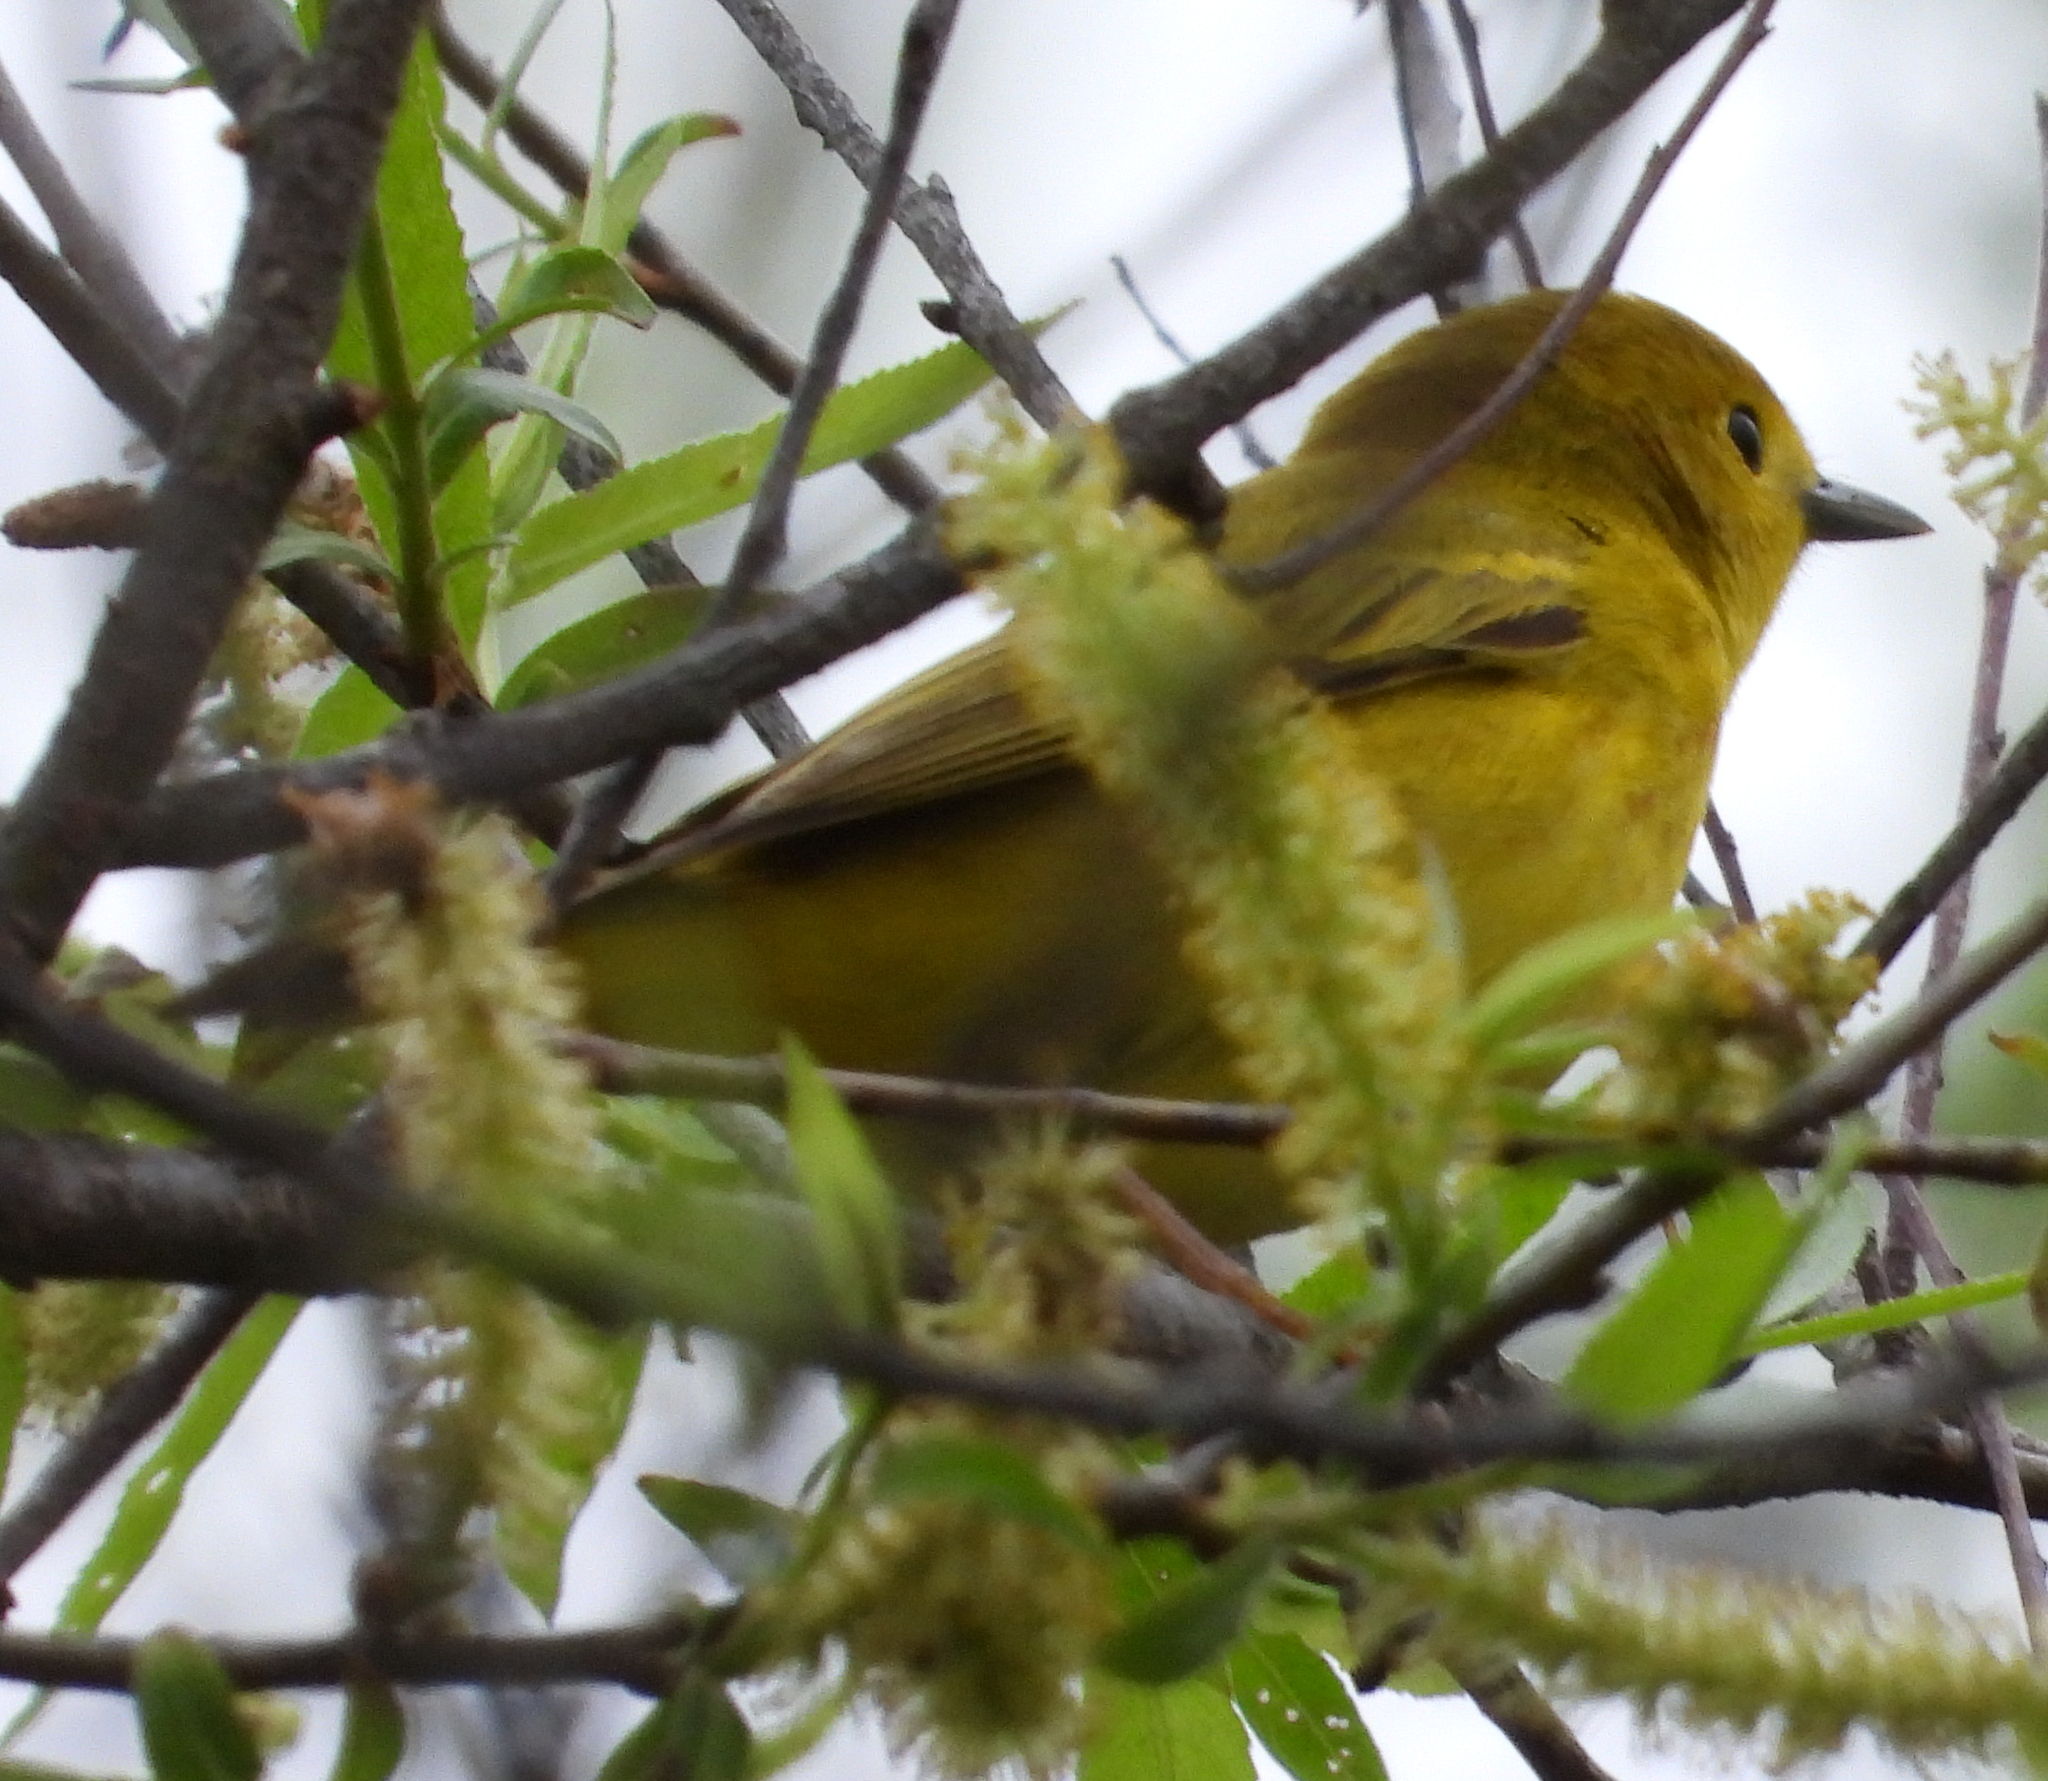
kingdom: Animalia
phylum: Chordata
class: Aves
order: Passeriformes
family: Parulidae
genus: Setophaga
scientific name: Setophaga petechia
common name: Yellow warbler
